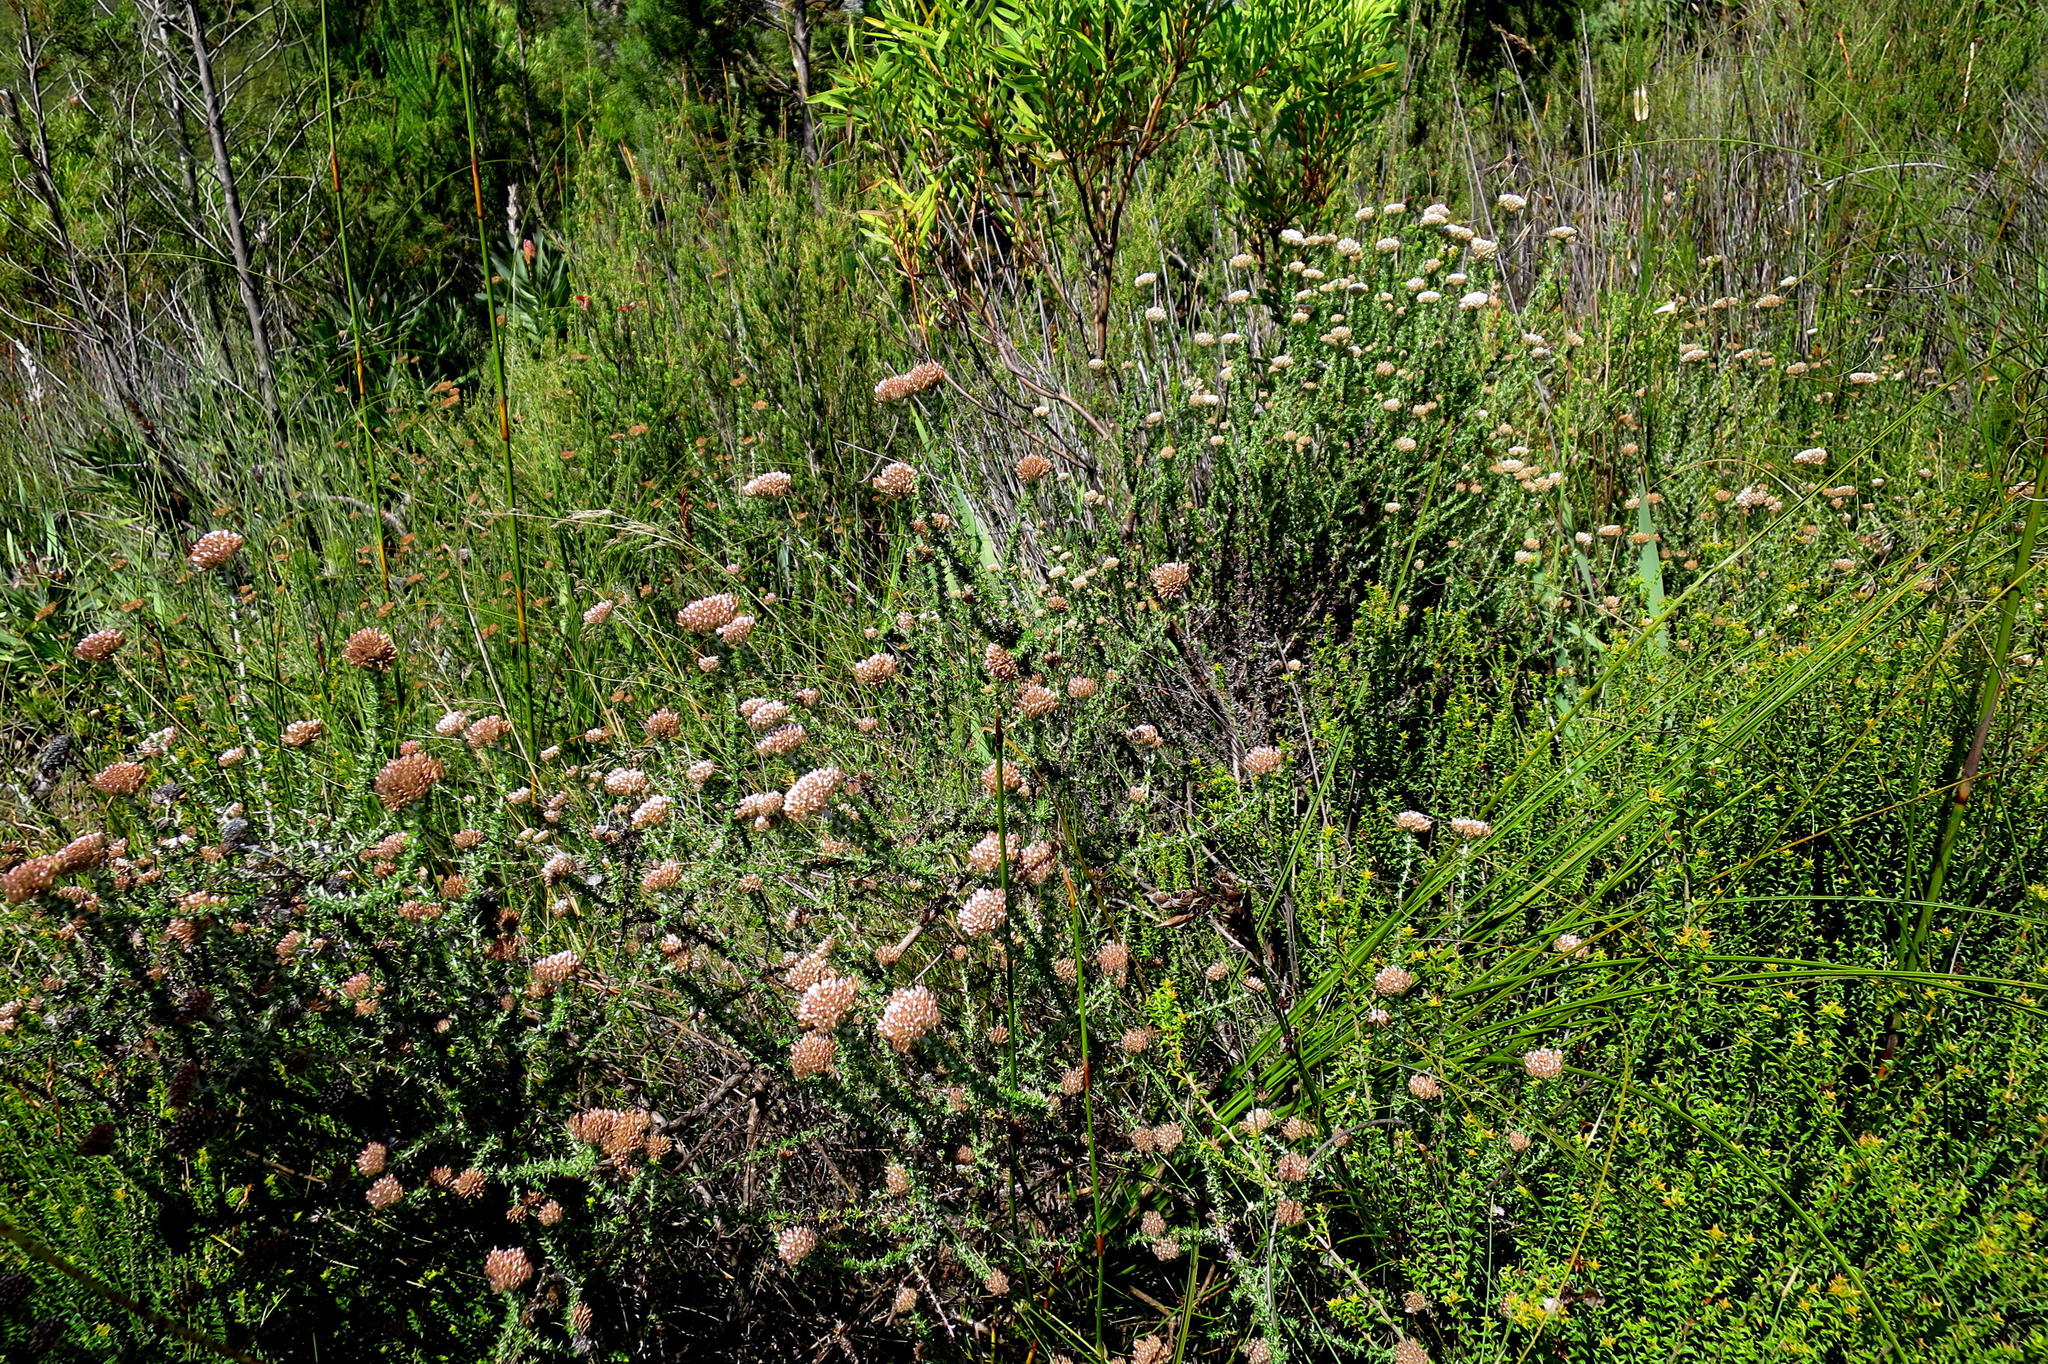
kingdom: Plantae
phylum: Tracheophyta
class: Magnoliopsida
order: Asterales
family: Asteraceae
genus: Metalasia
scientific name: Metalasia pungens
